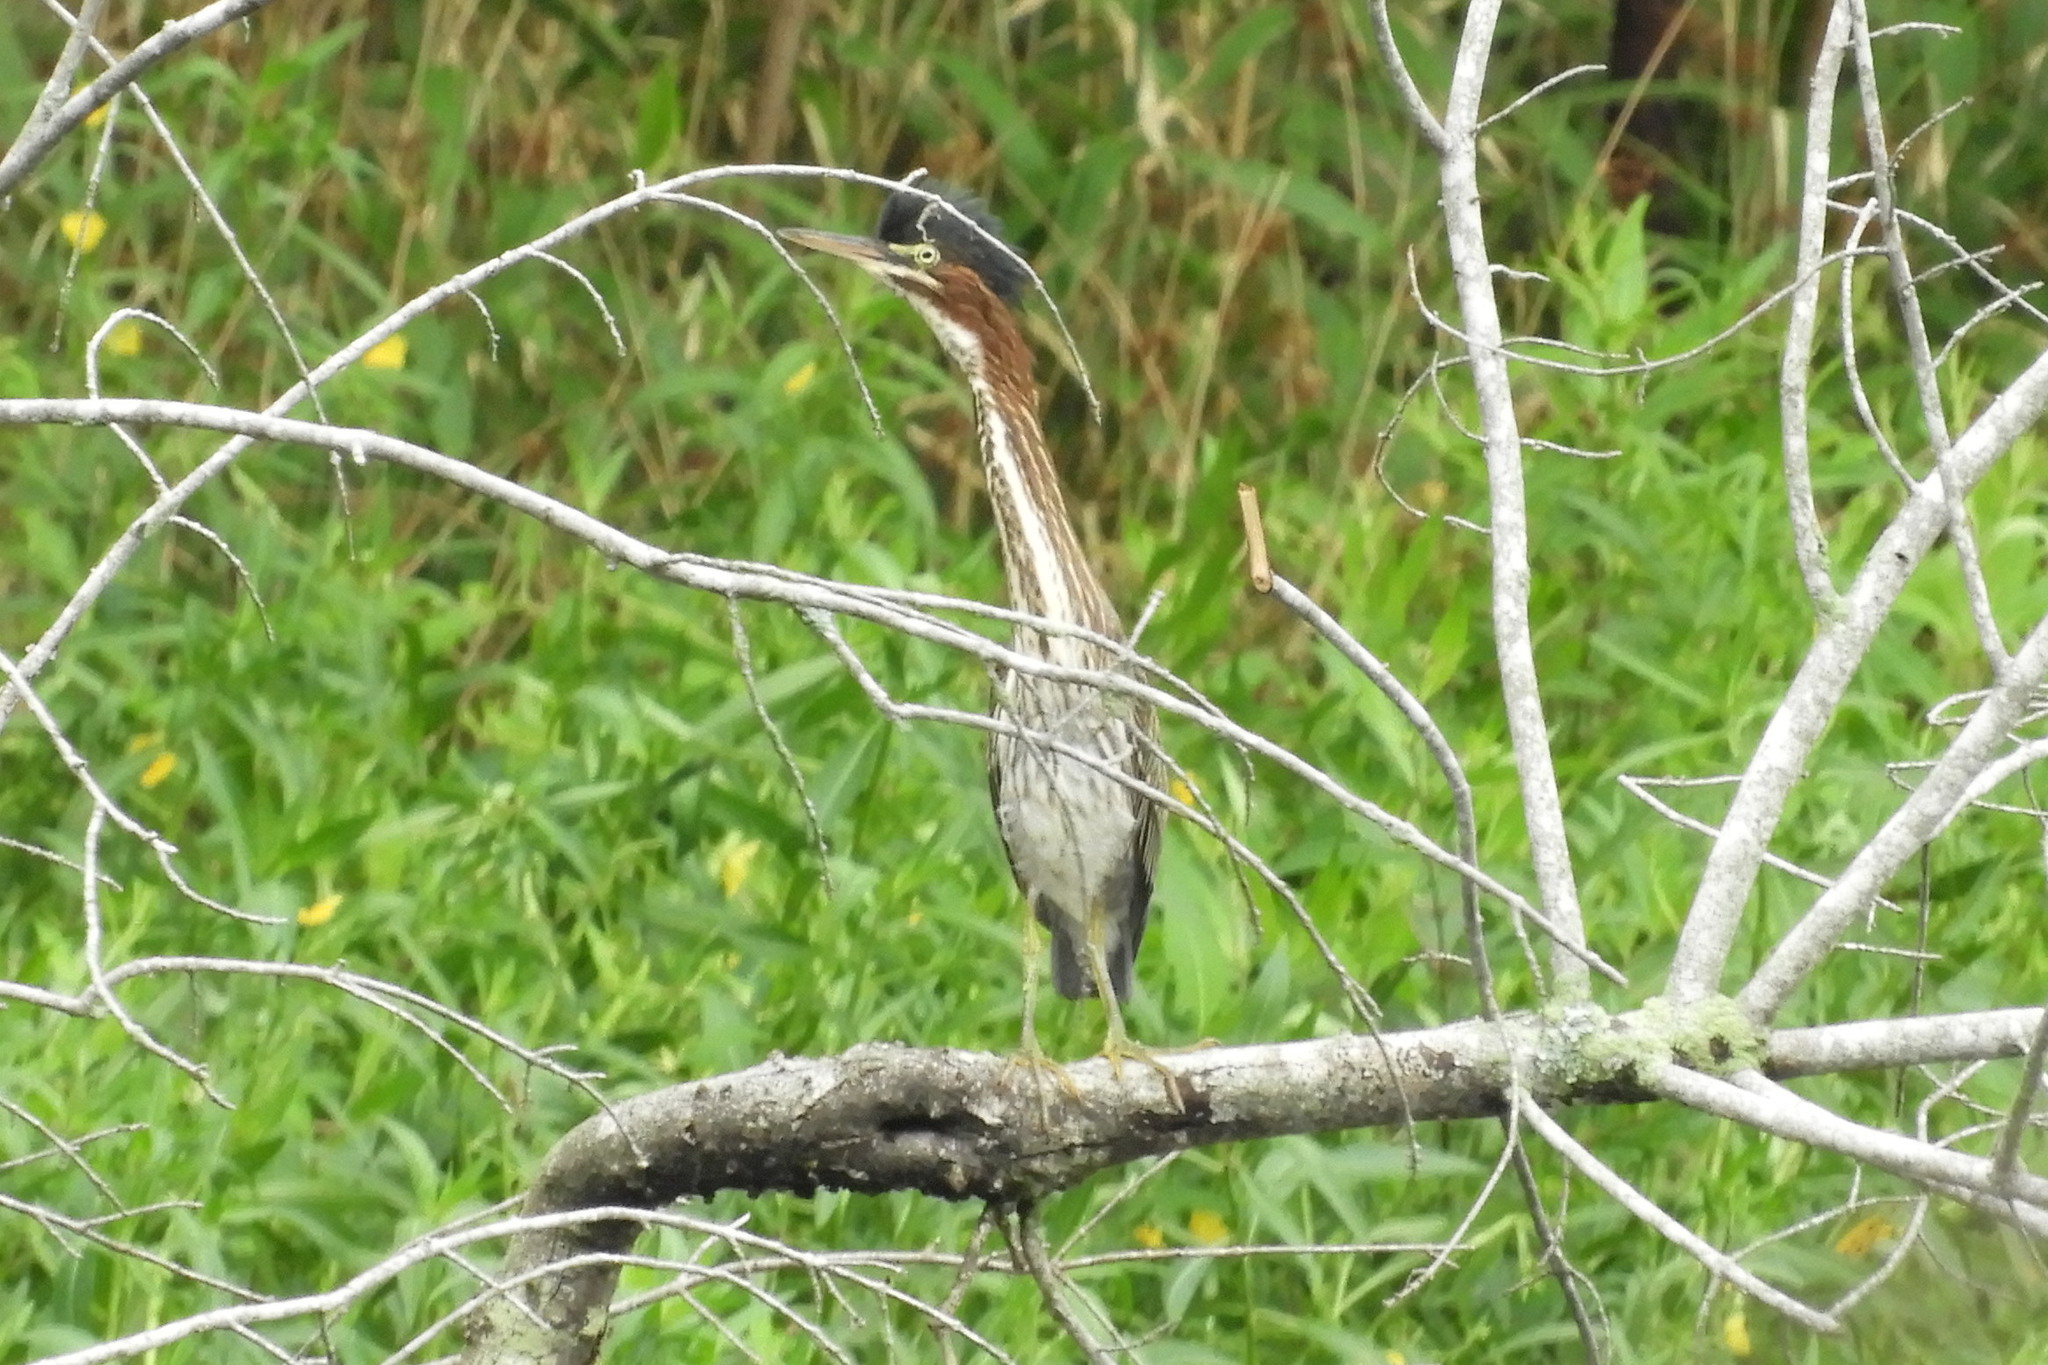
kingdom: Animalia
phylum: Chordata
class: Aves
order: Pelecaniformes
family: Ardeidae
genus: Butorides
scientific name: Butorides virescens
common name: Green heron
